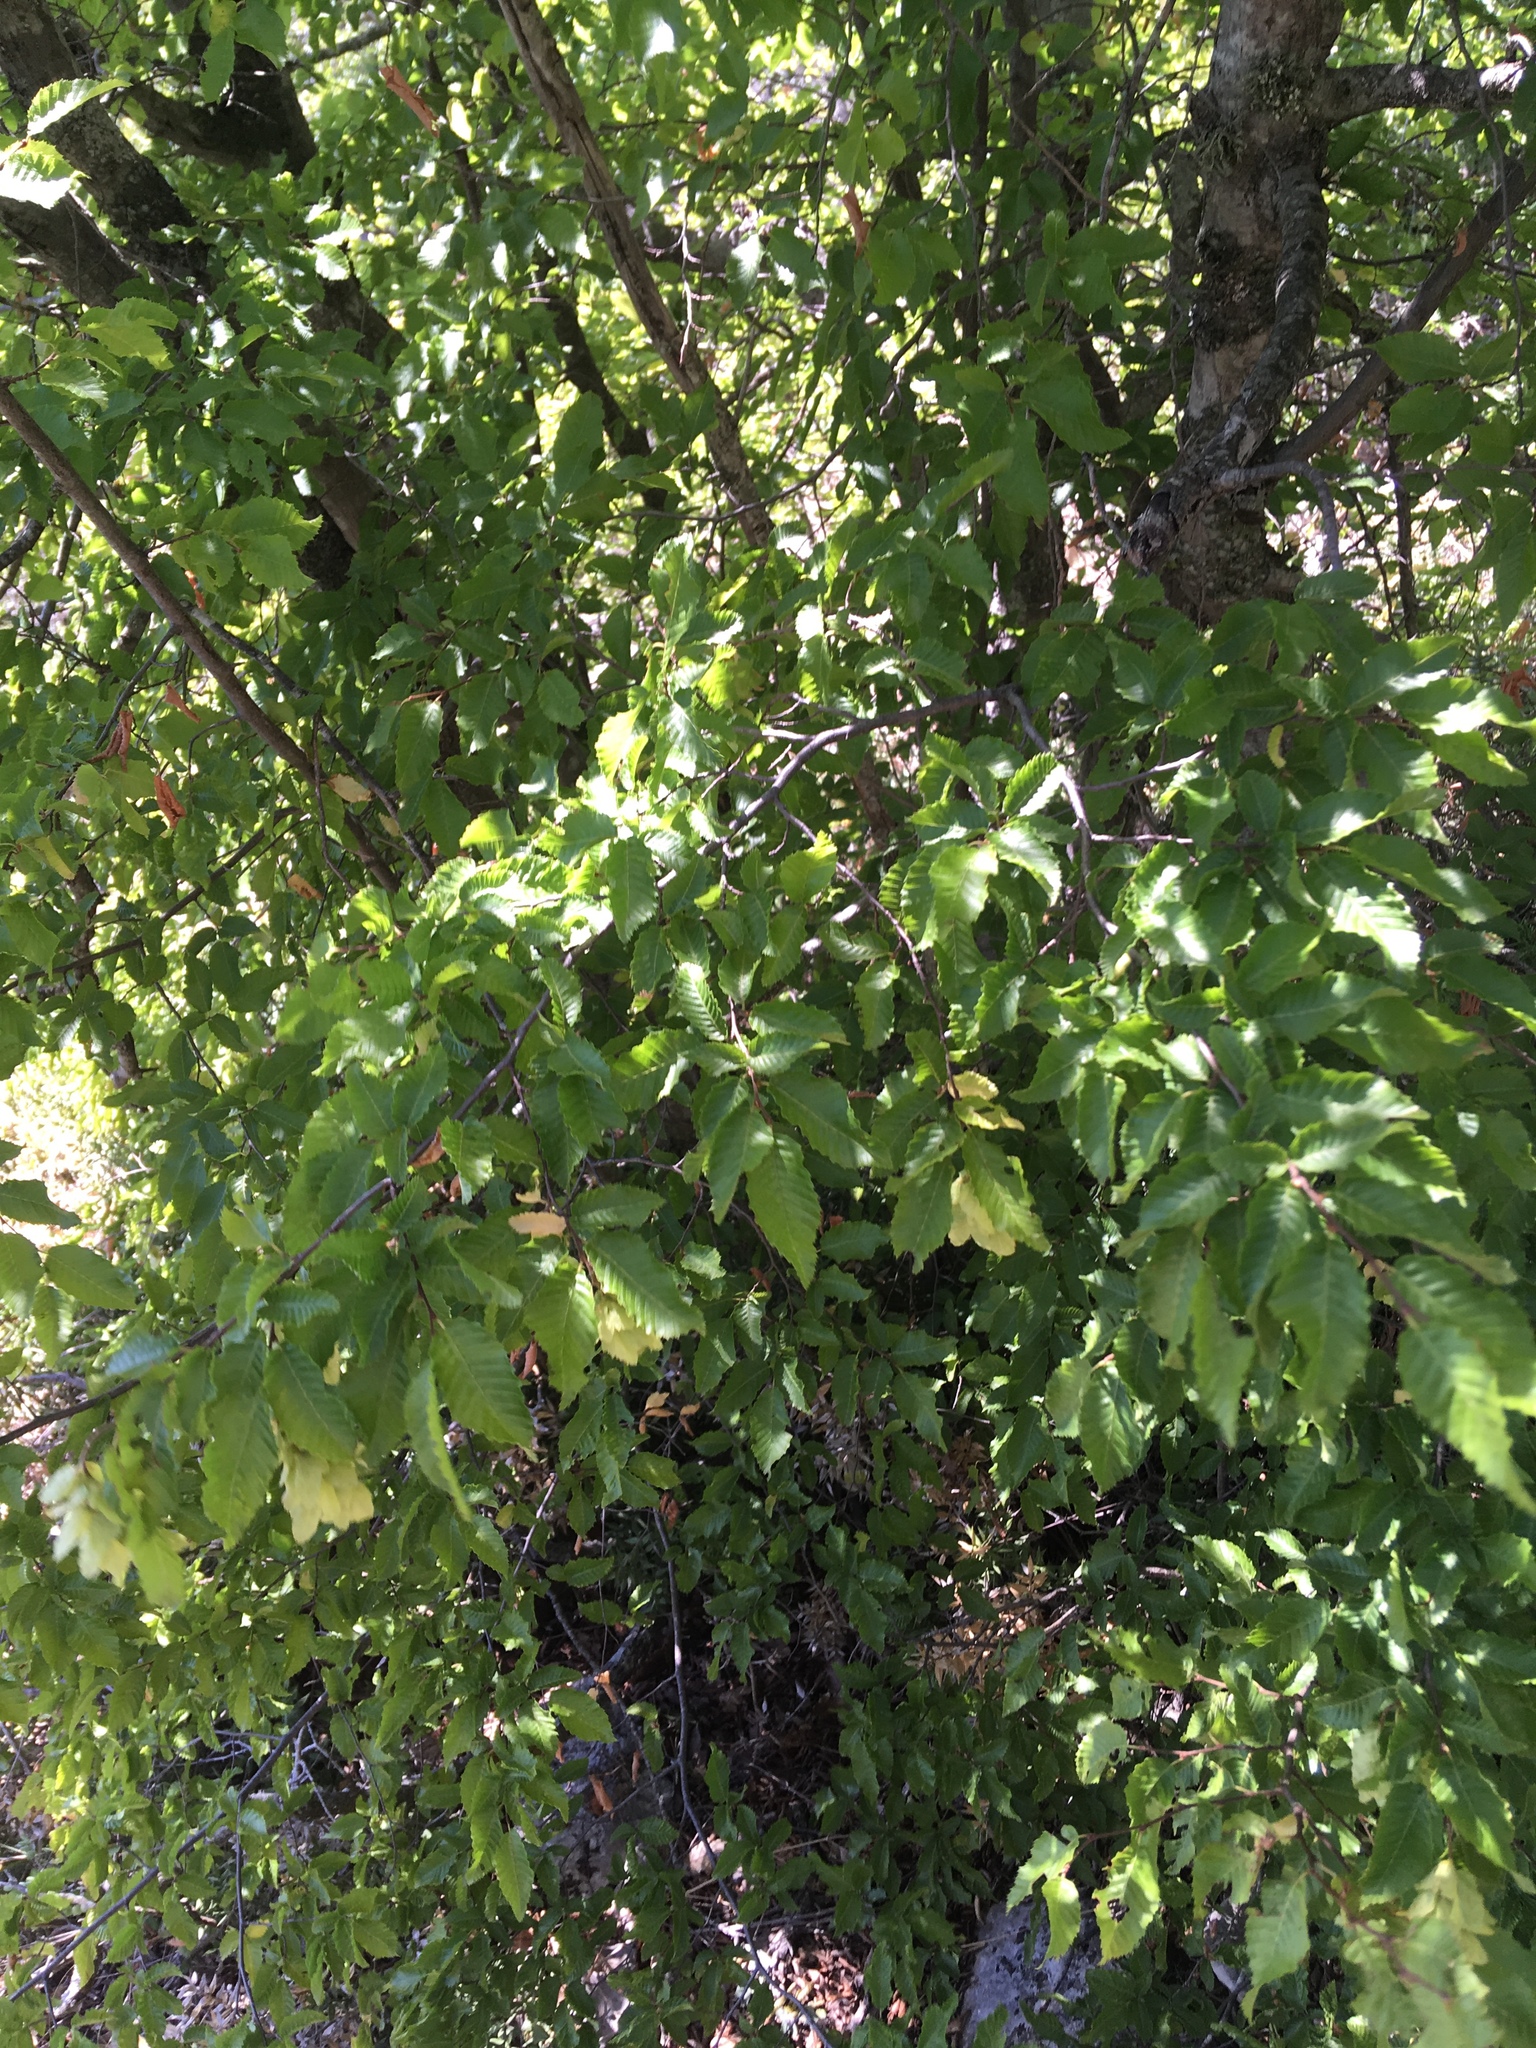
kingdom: Plantae
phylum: Tracheophyta
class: Magnoliopsida
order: Fagales
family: Betulaceae
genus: Carpinus
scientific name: Carpinus orientalis
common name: Eastern hornbeam
